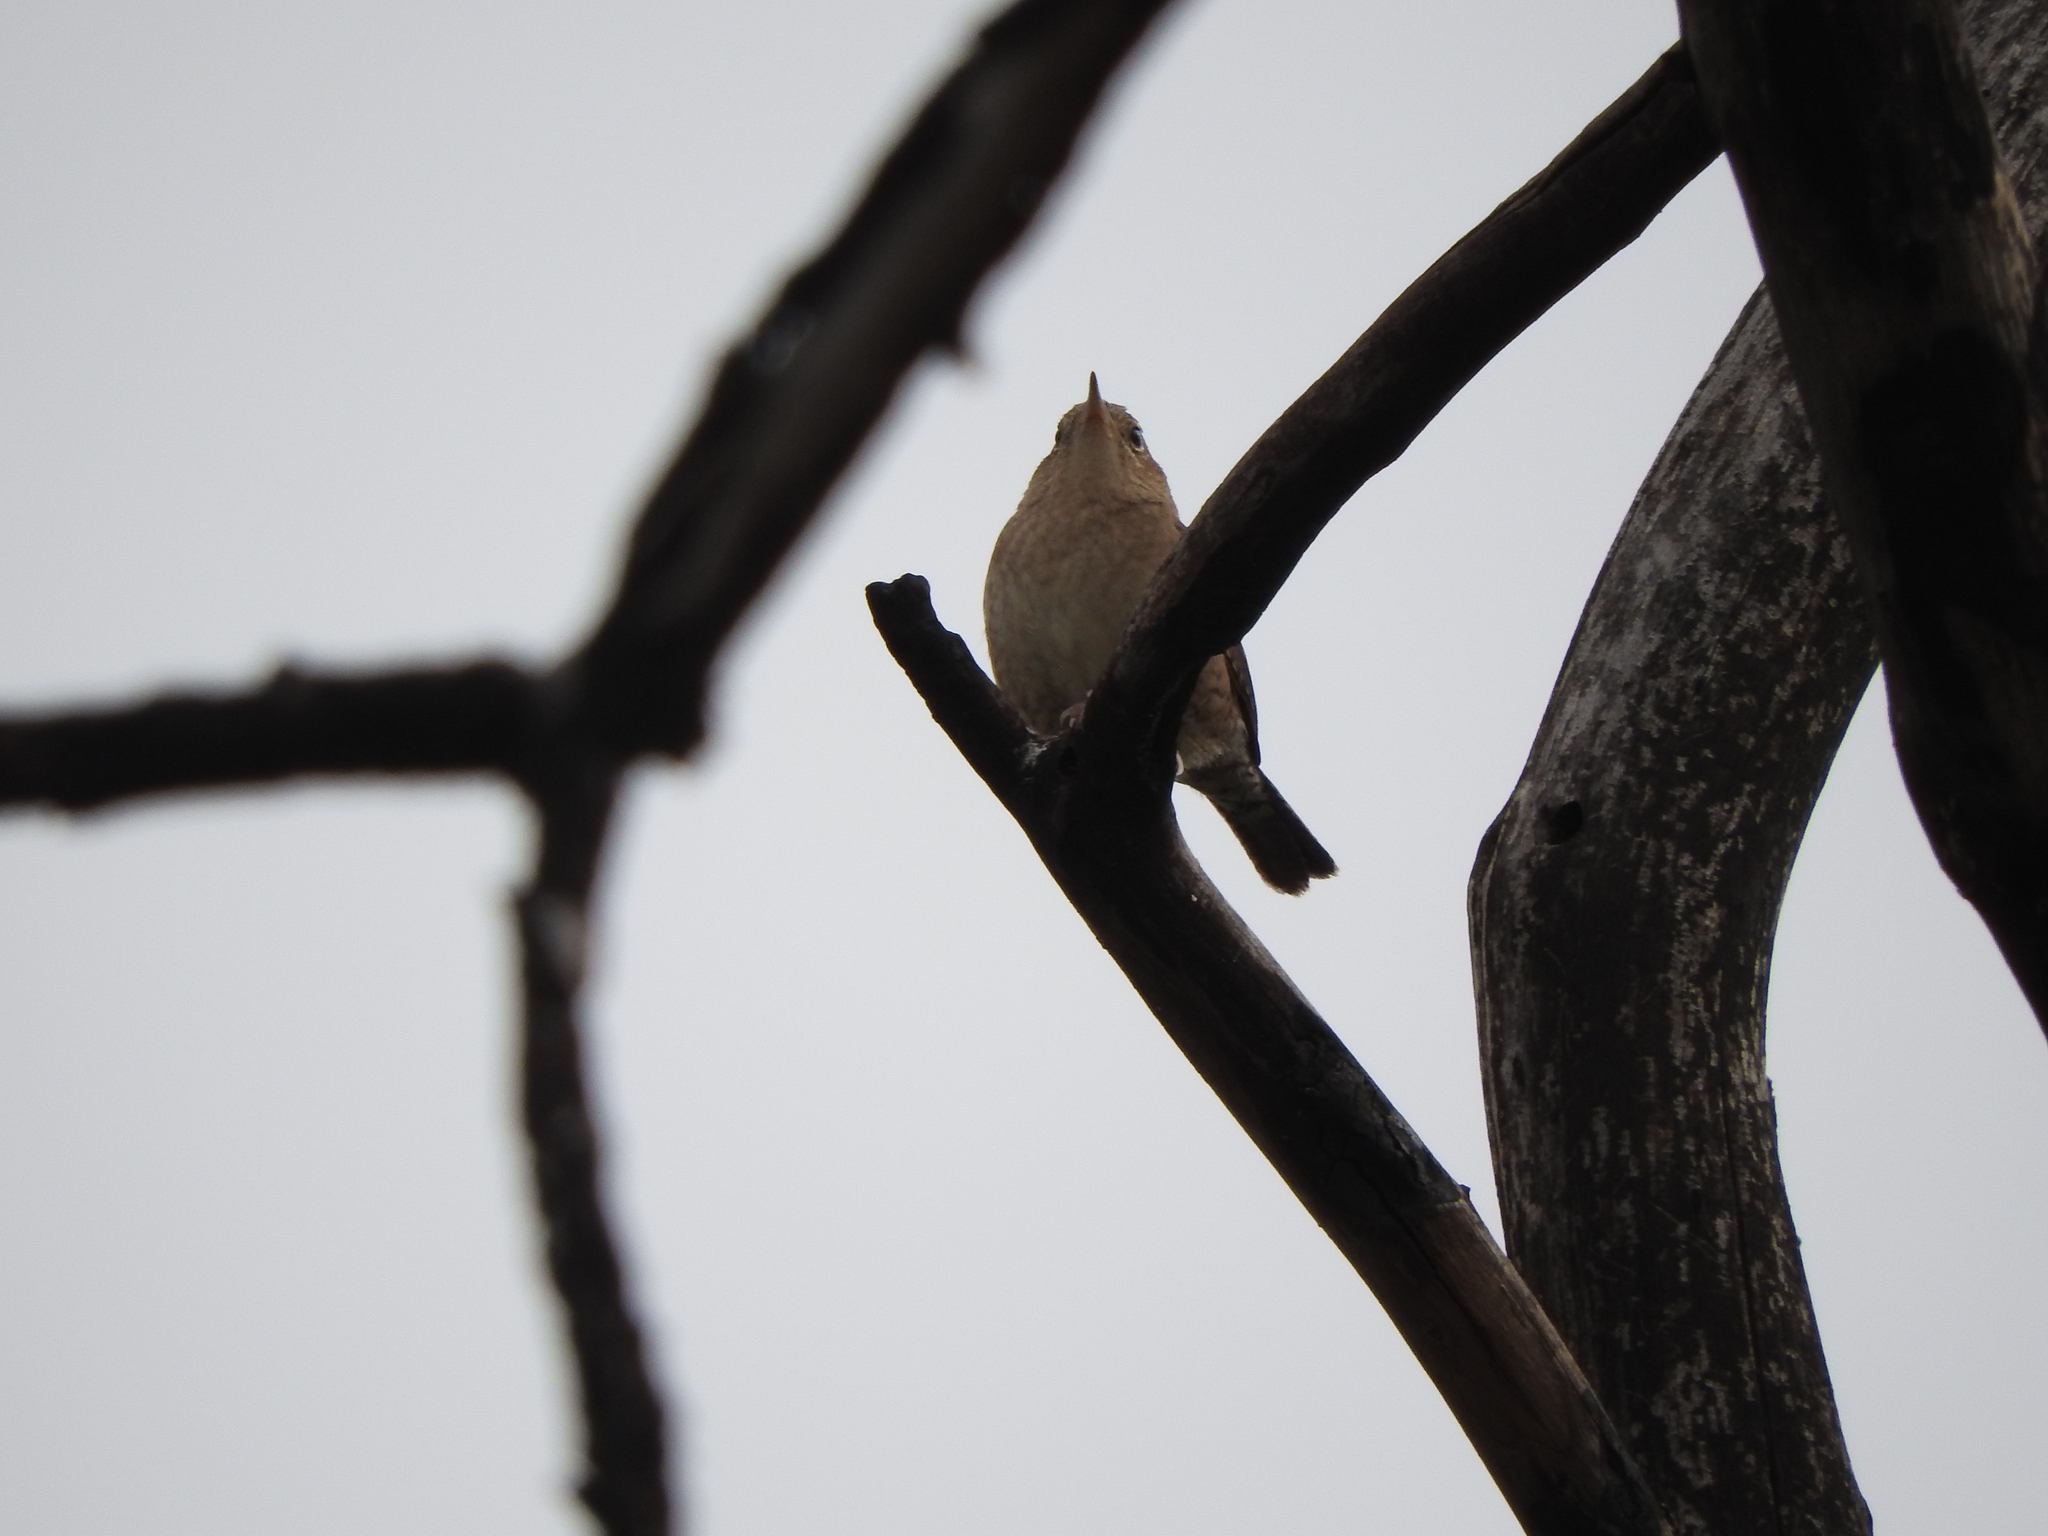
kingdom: Animalia
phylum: Chordata
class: Aves
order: Passeriformes
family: Troglodytidae
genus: Troglodytes
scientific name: Troglodytes aedon
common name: House wren
